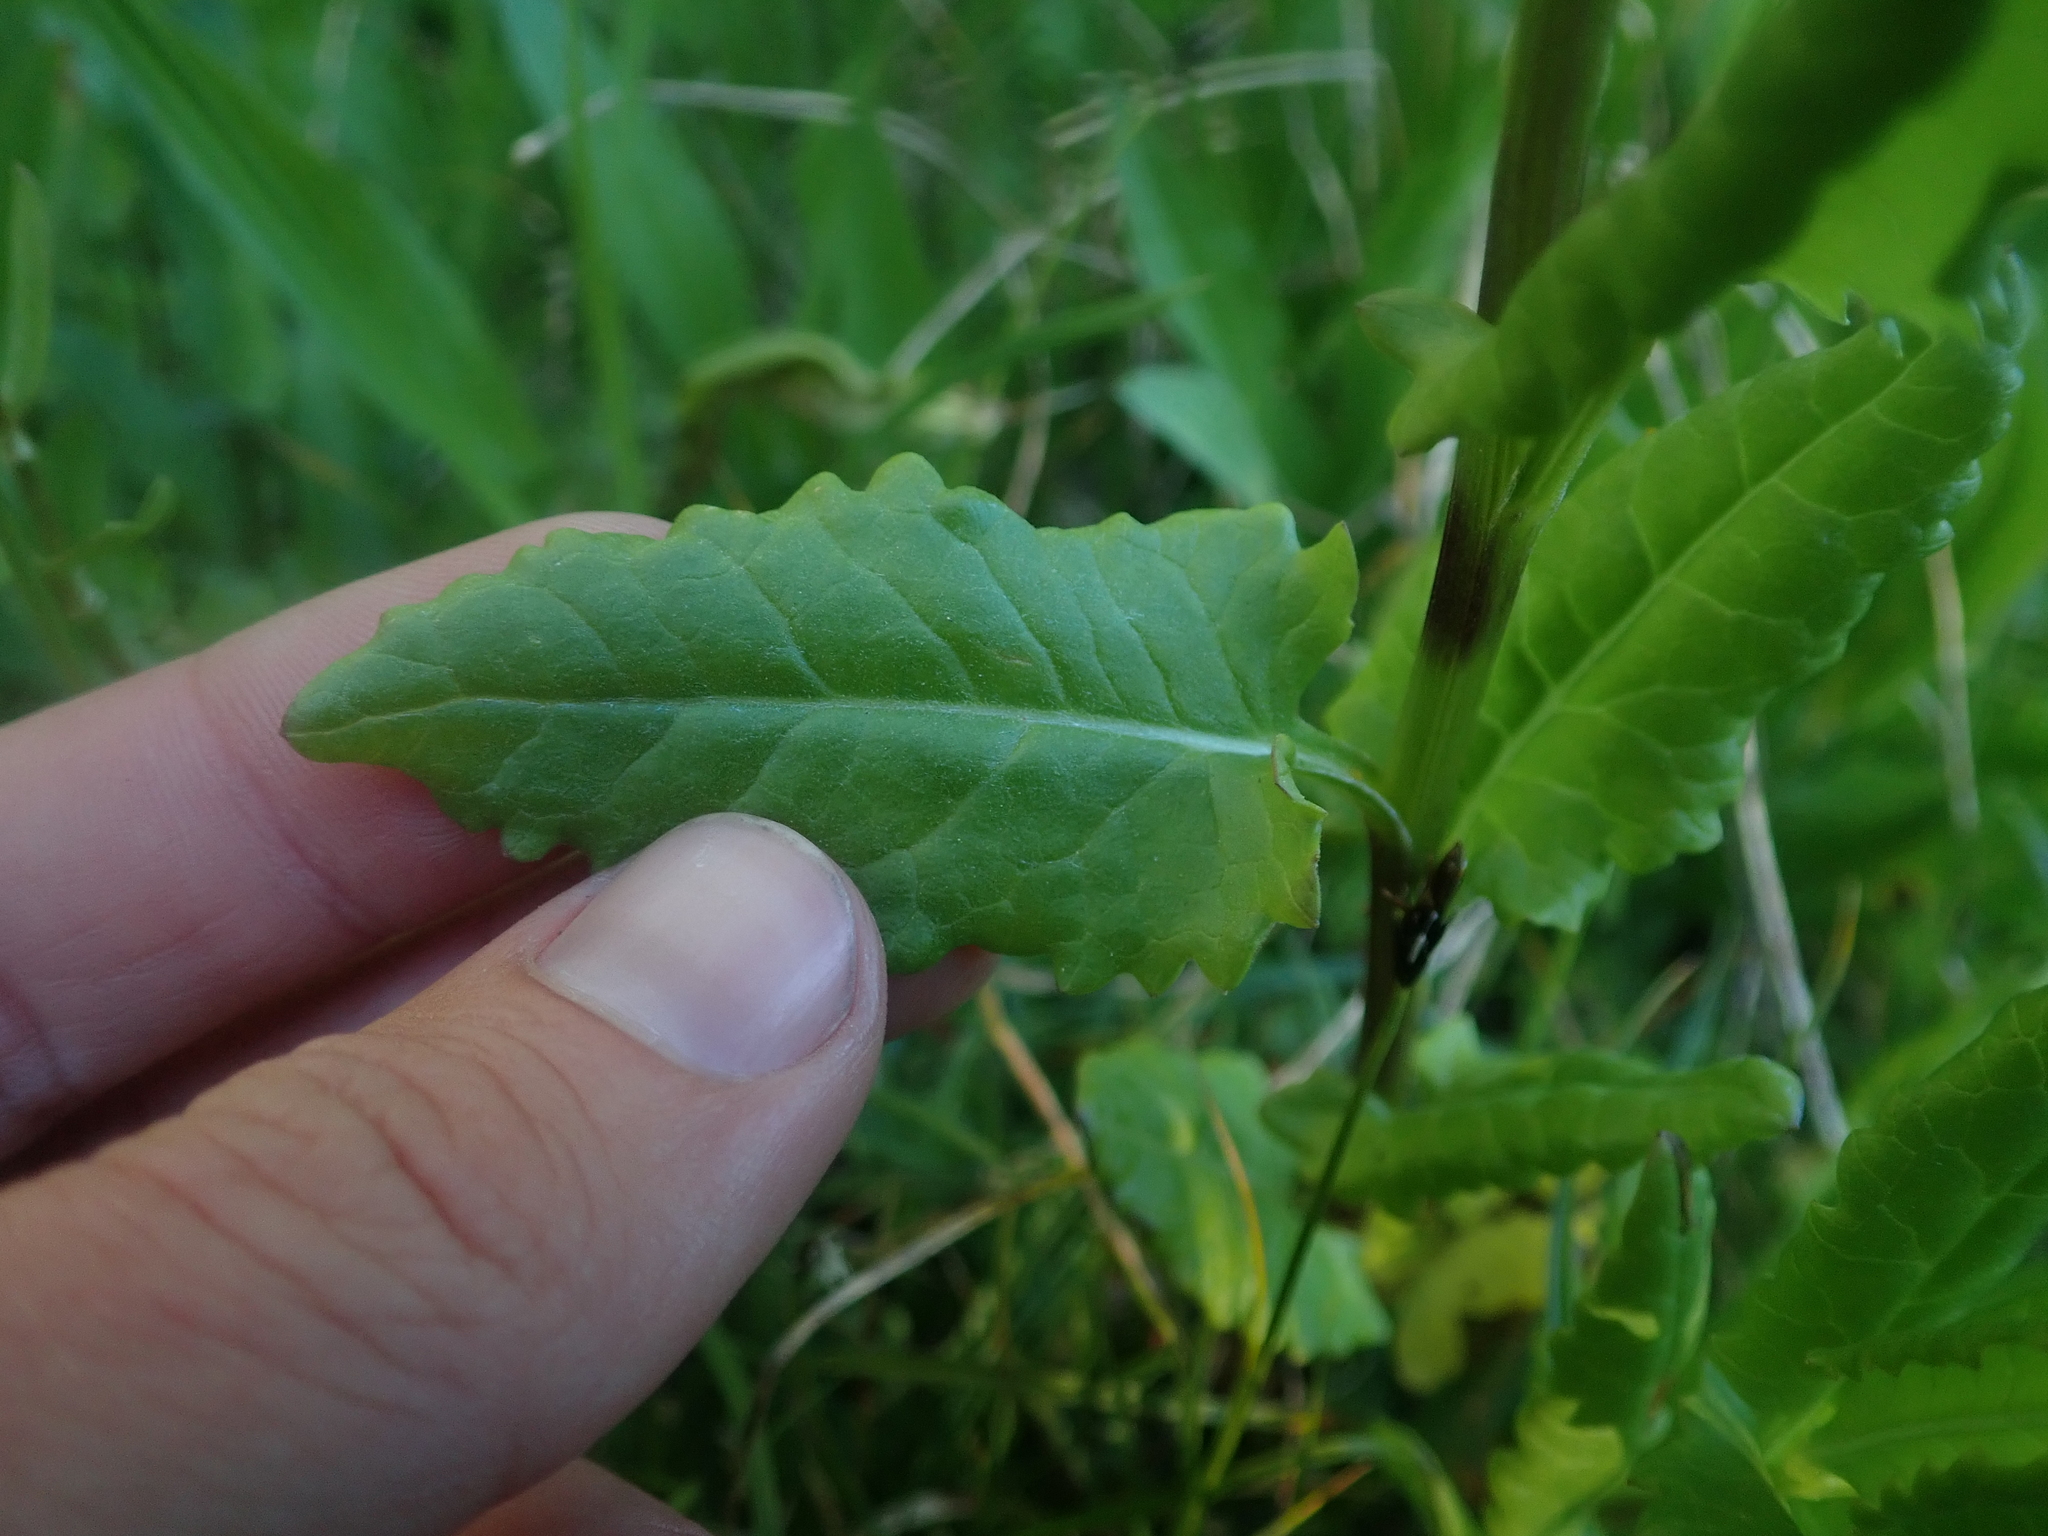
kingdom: Plantae
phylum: Tracheophyta
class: Magnoliopsida
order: Asterales
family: Asteraceae
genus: Senecio
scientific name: Senecio triangularis
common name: Arrowleaf butterweed
